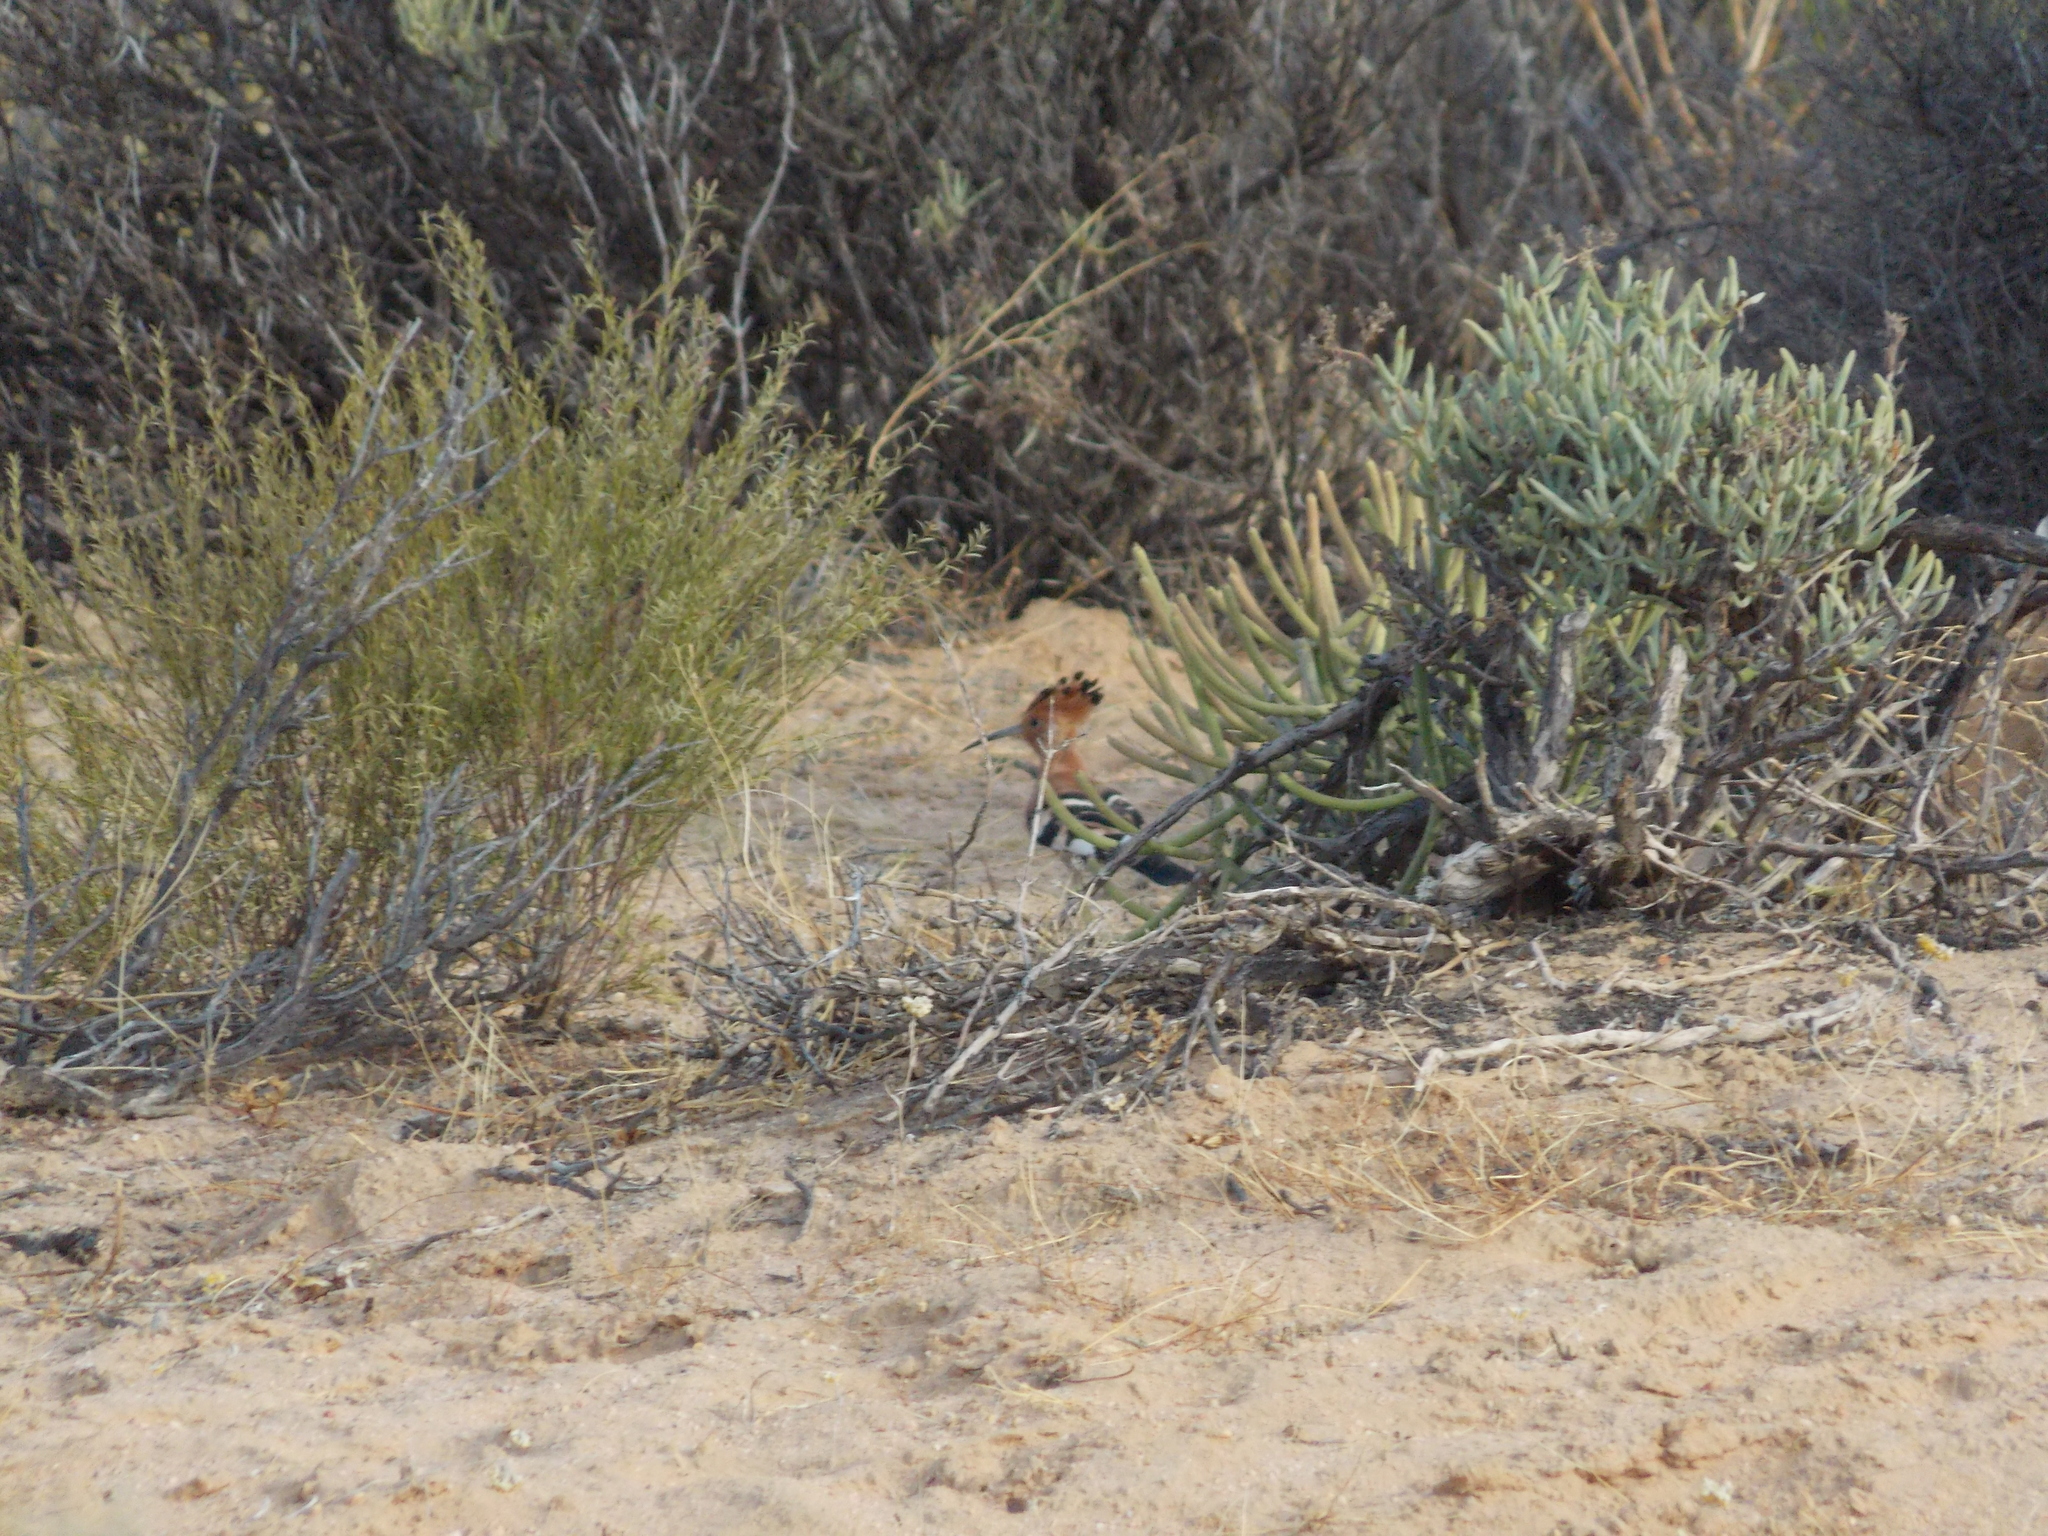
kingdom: Animalia
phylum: Chordata
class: Aves
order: Bucerotiformes
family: Upupidae
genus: Upupa
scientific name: Upupa africana
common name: African hoopoe
